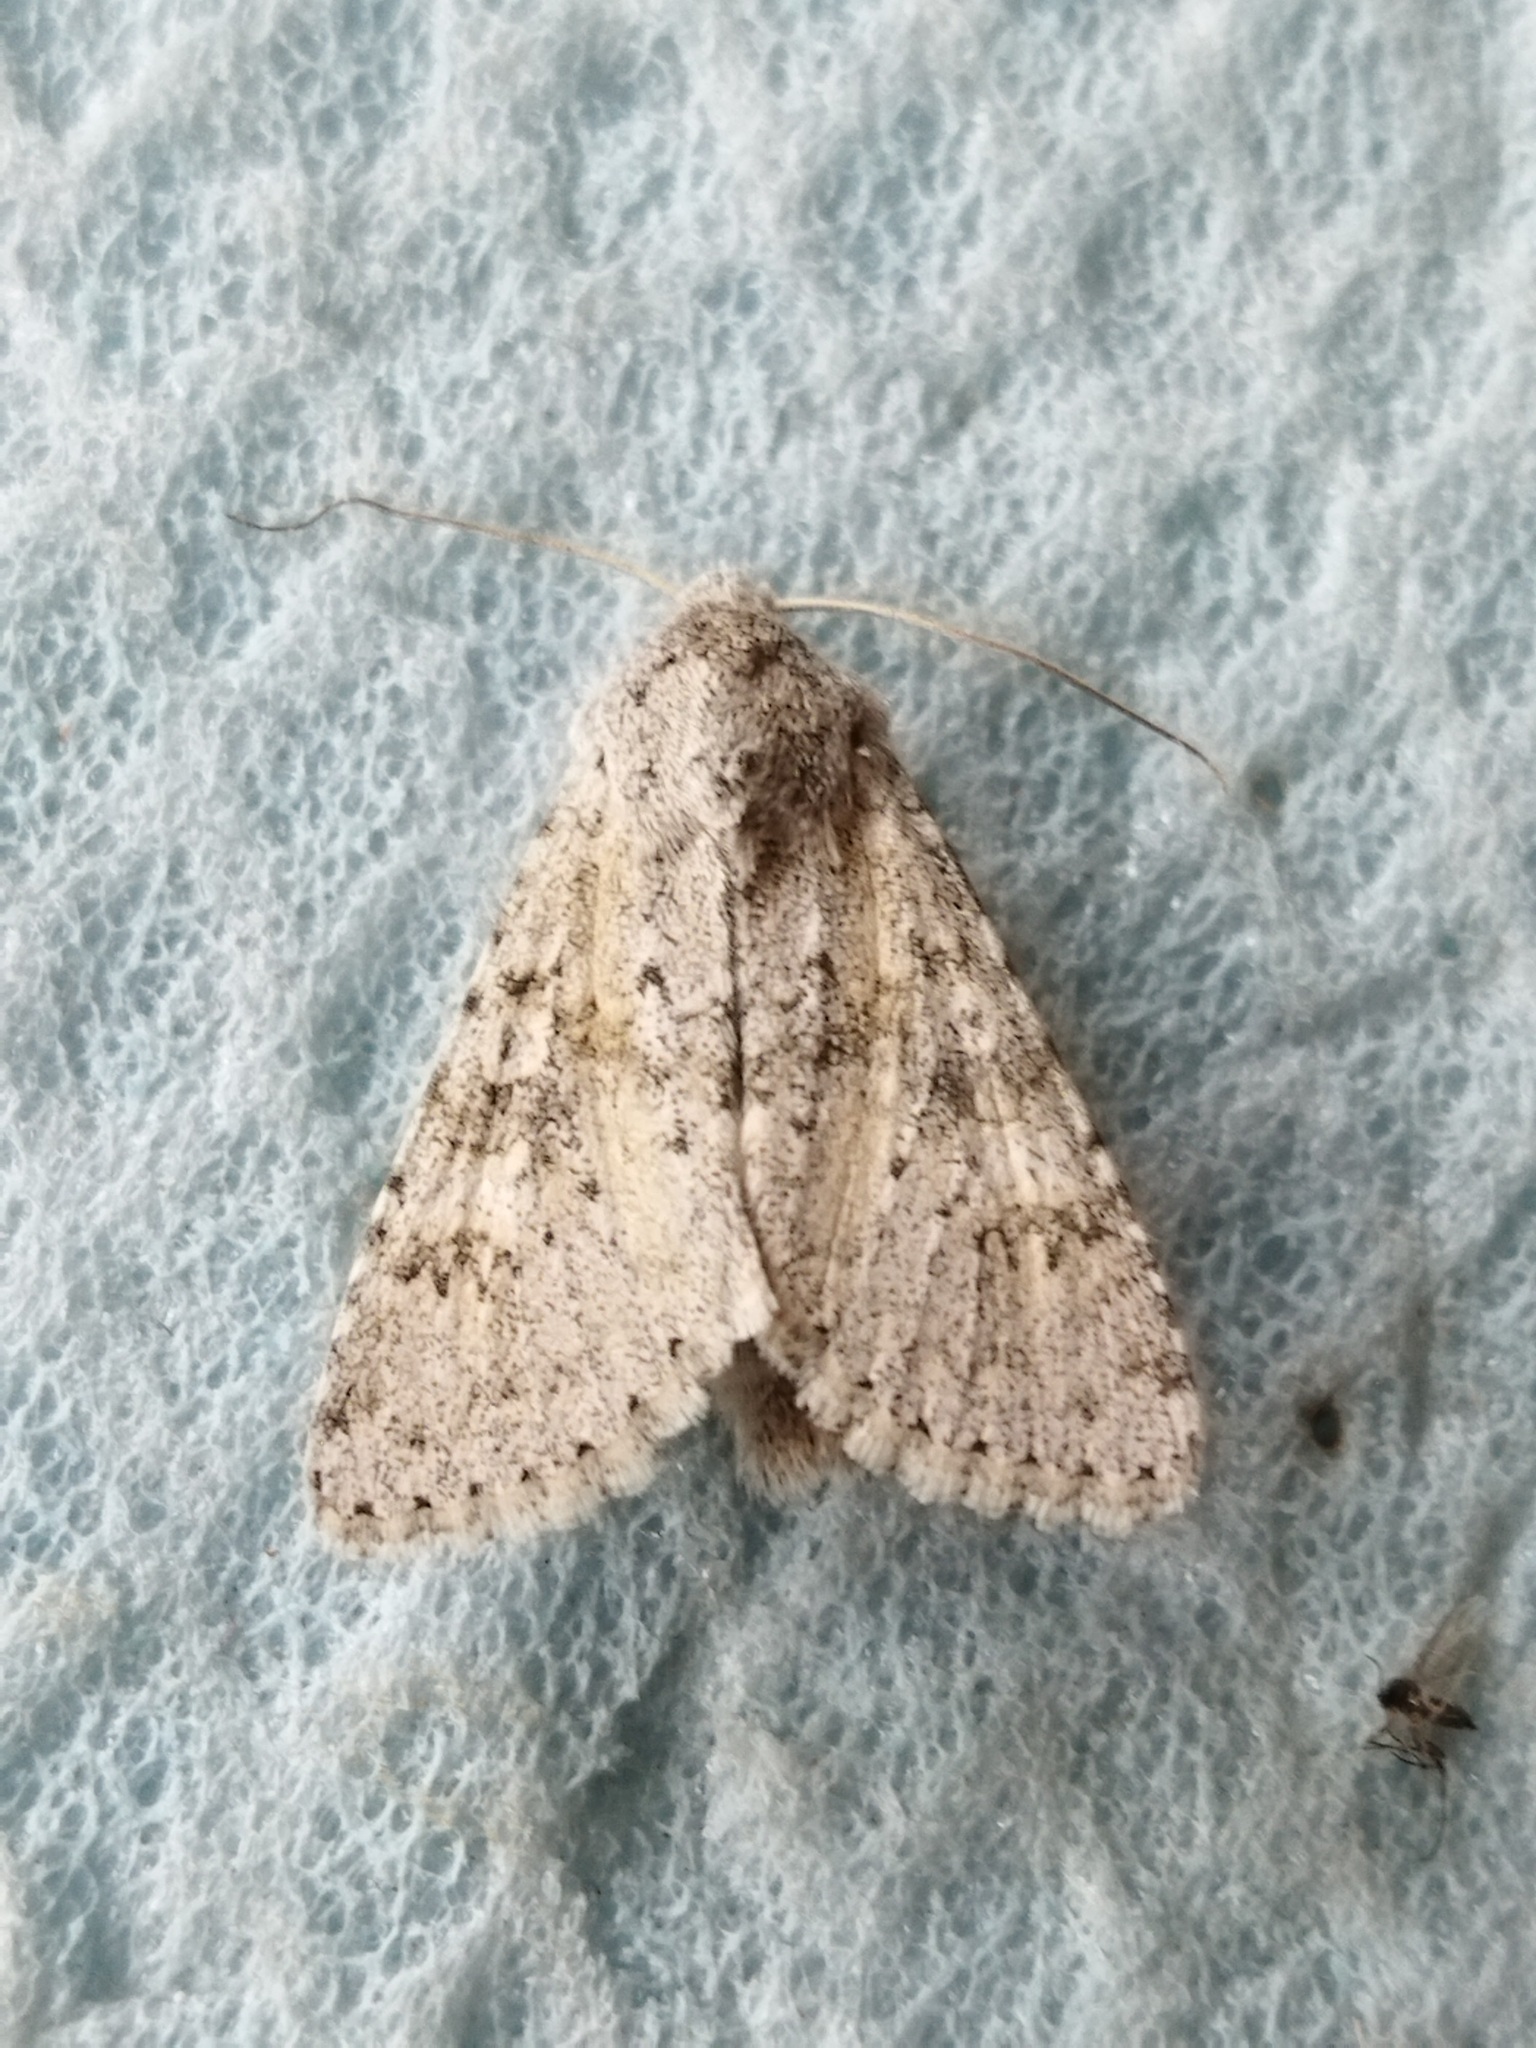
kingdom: Animalia
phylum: Arthropoda
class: Insecta
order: Lepidoptera
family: Noctuidae
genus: Aporophyla
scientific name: Aporophyla canescens
